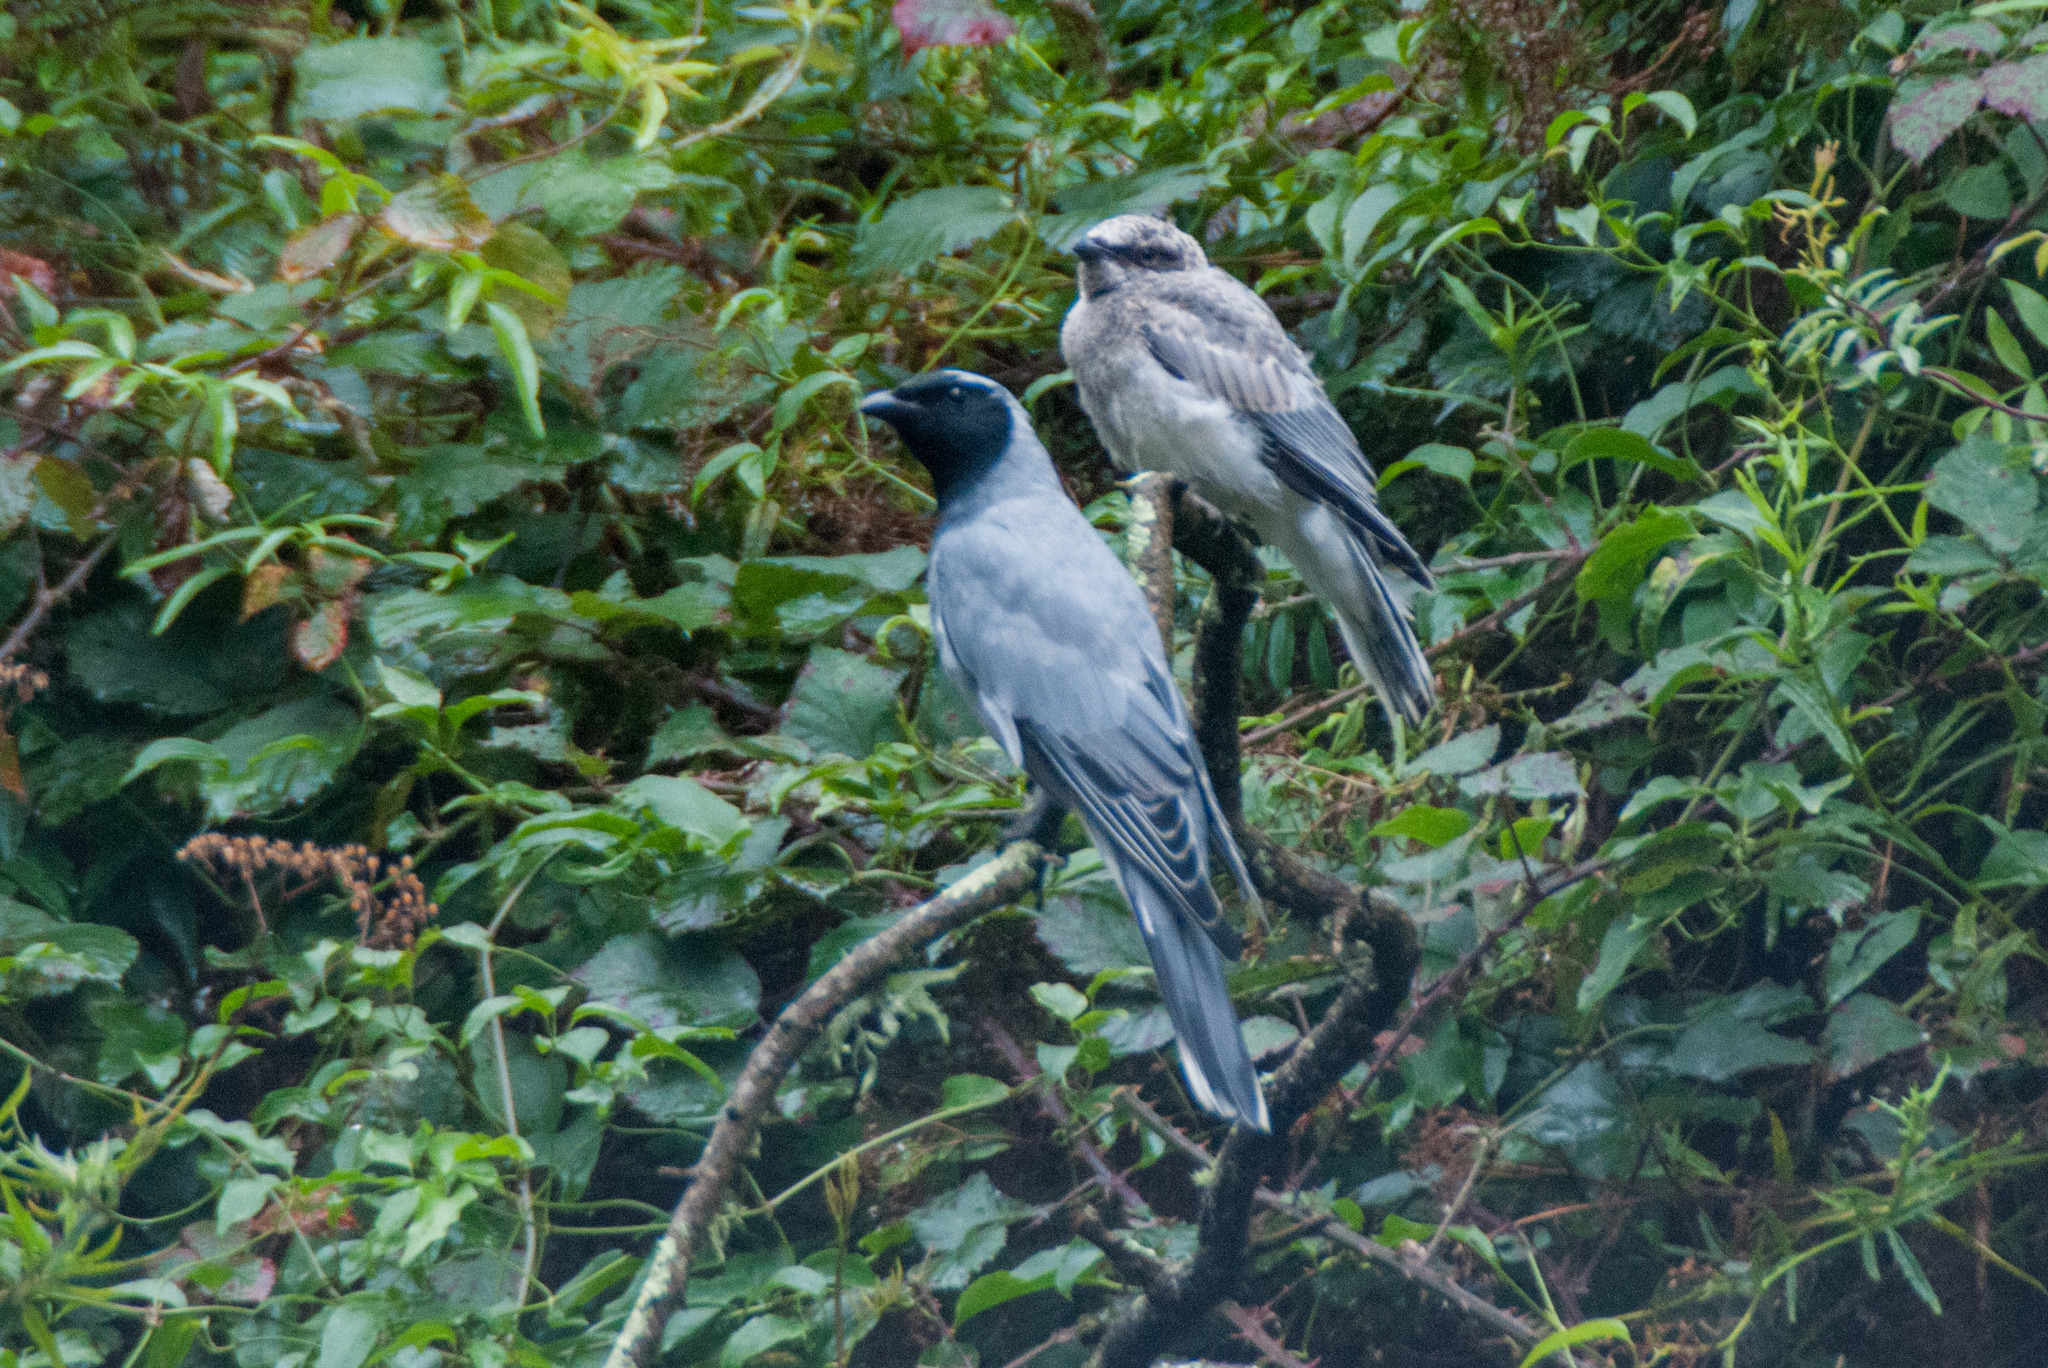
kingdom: Animalia
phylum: Chordata
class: Aves
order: Passeriformes
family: Campephagidae
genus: Coracina
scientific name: Coracina novaehollandiae
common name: Black-faced cuckooshrike
